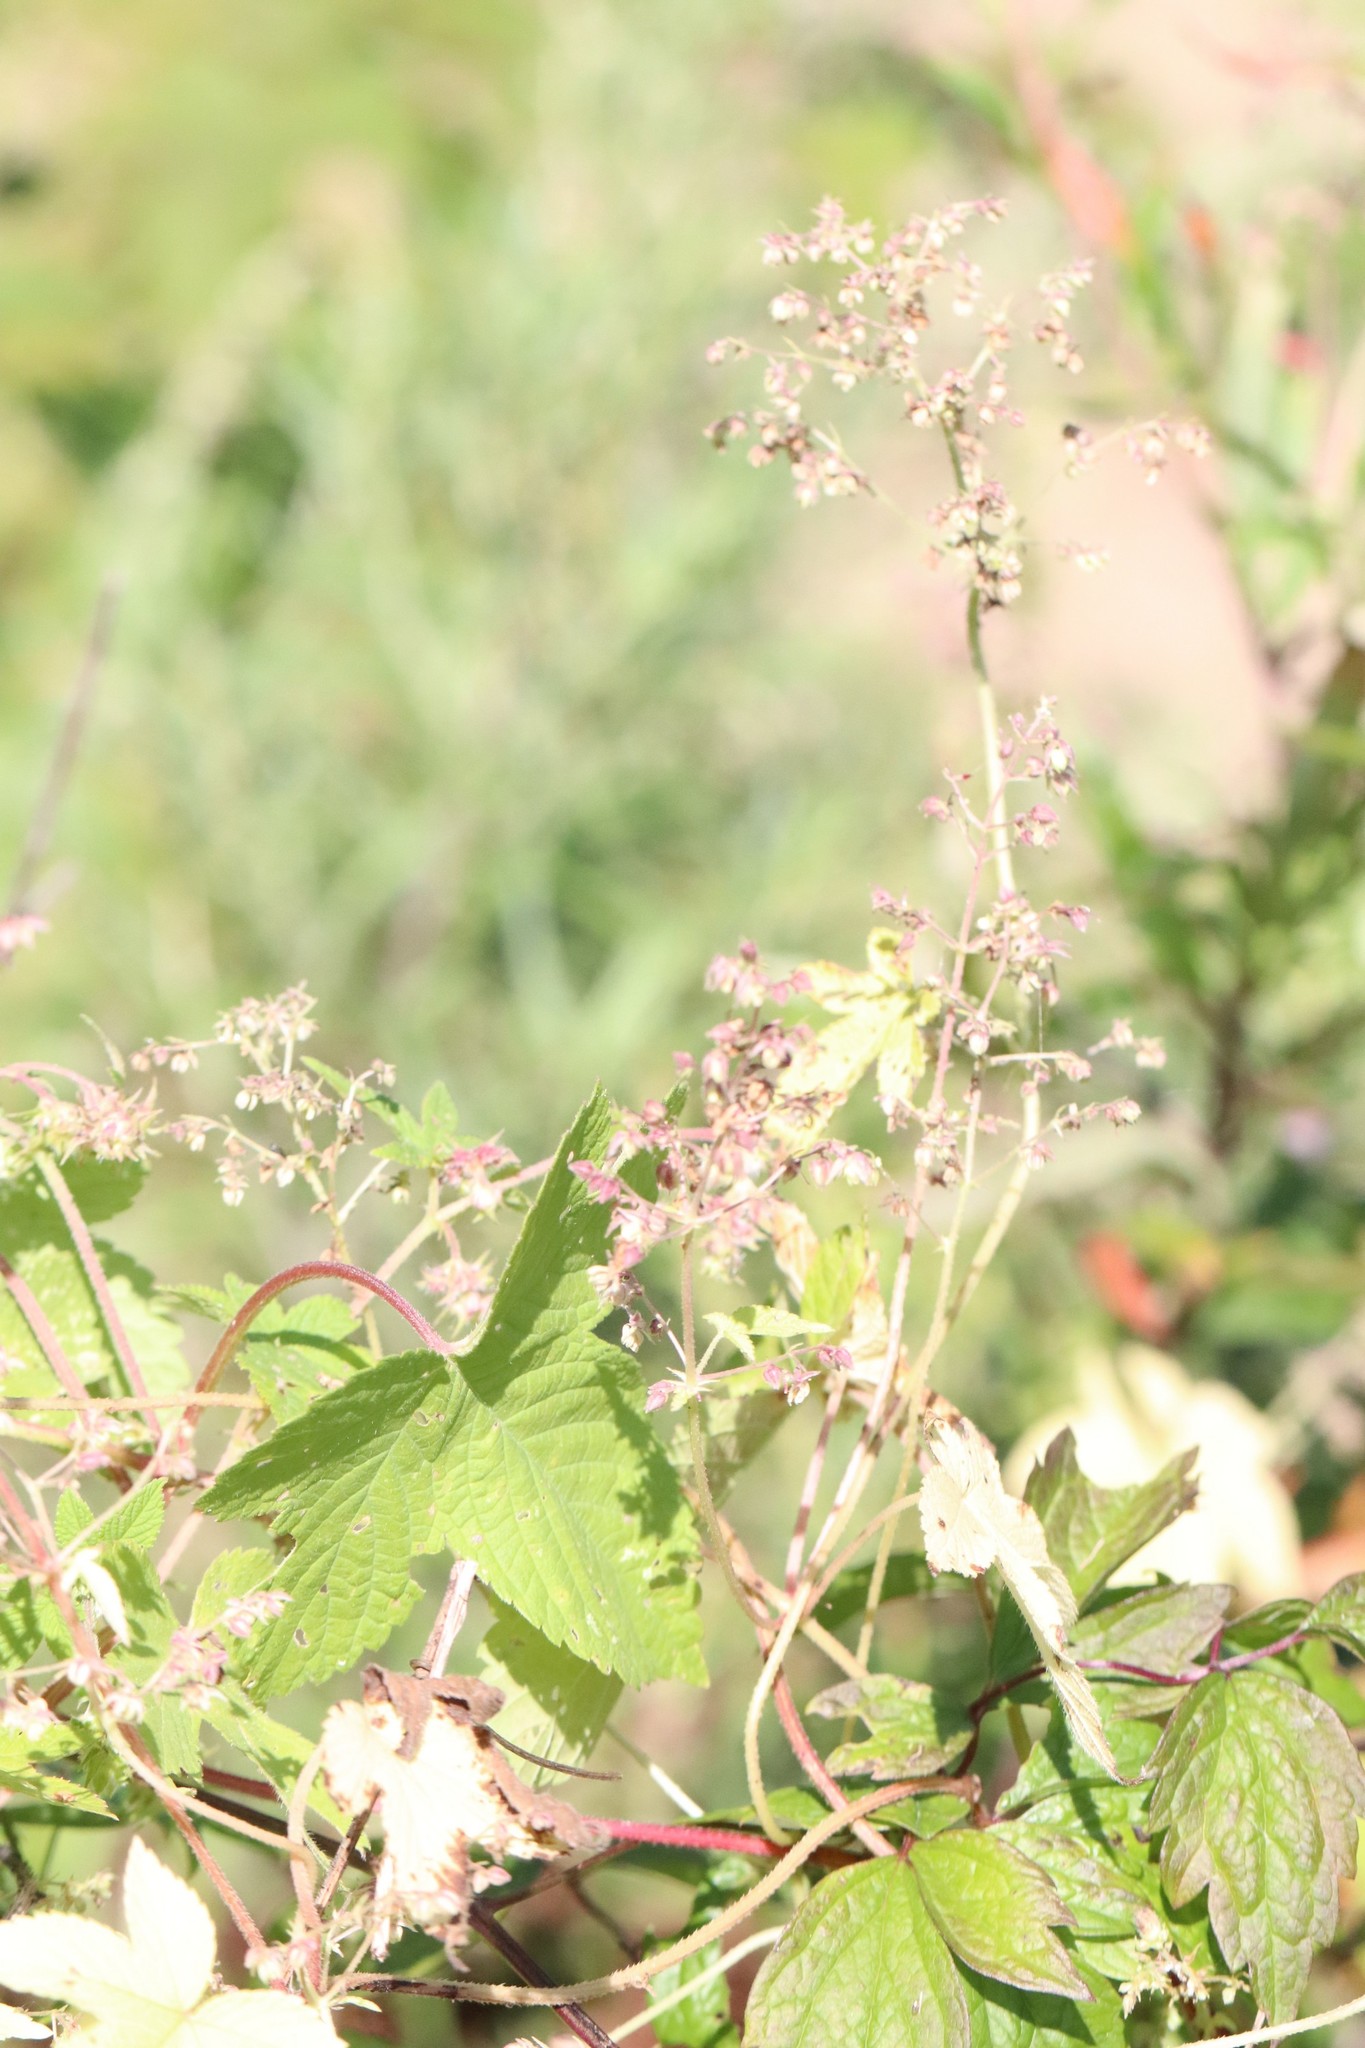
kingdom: Plantae
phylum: Tracheophyta
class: Magnoliopsida
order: Rosales
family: Cannabaceae
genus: Humulus
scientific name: Humulus scandens
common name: Japanese hop
